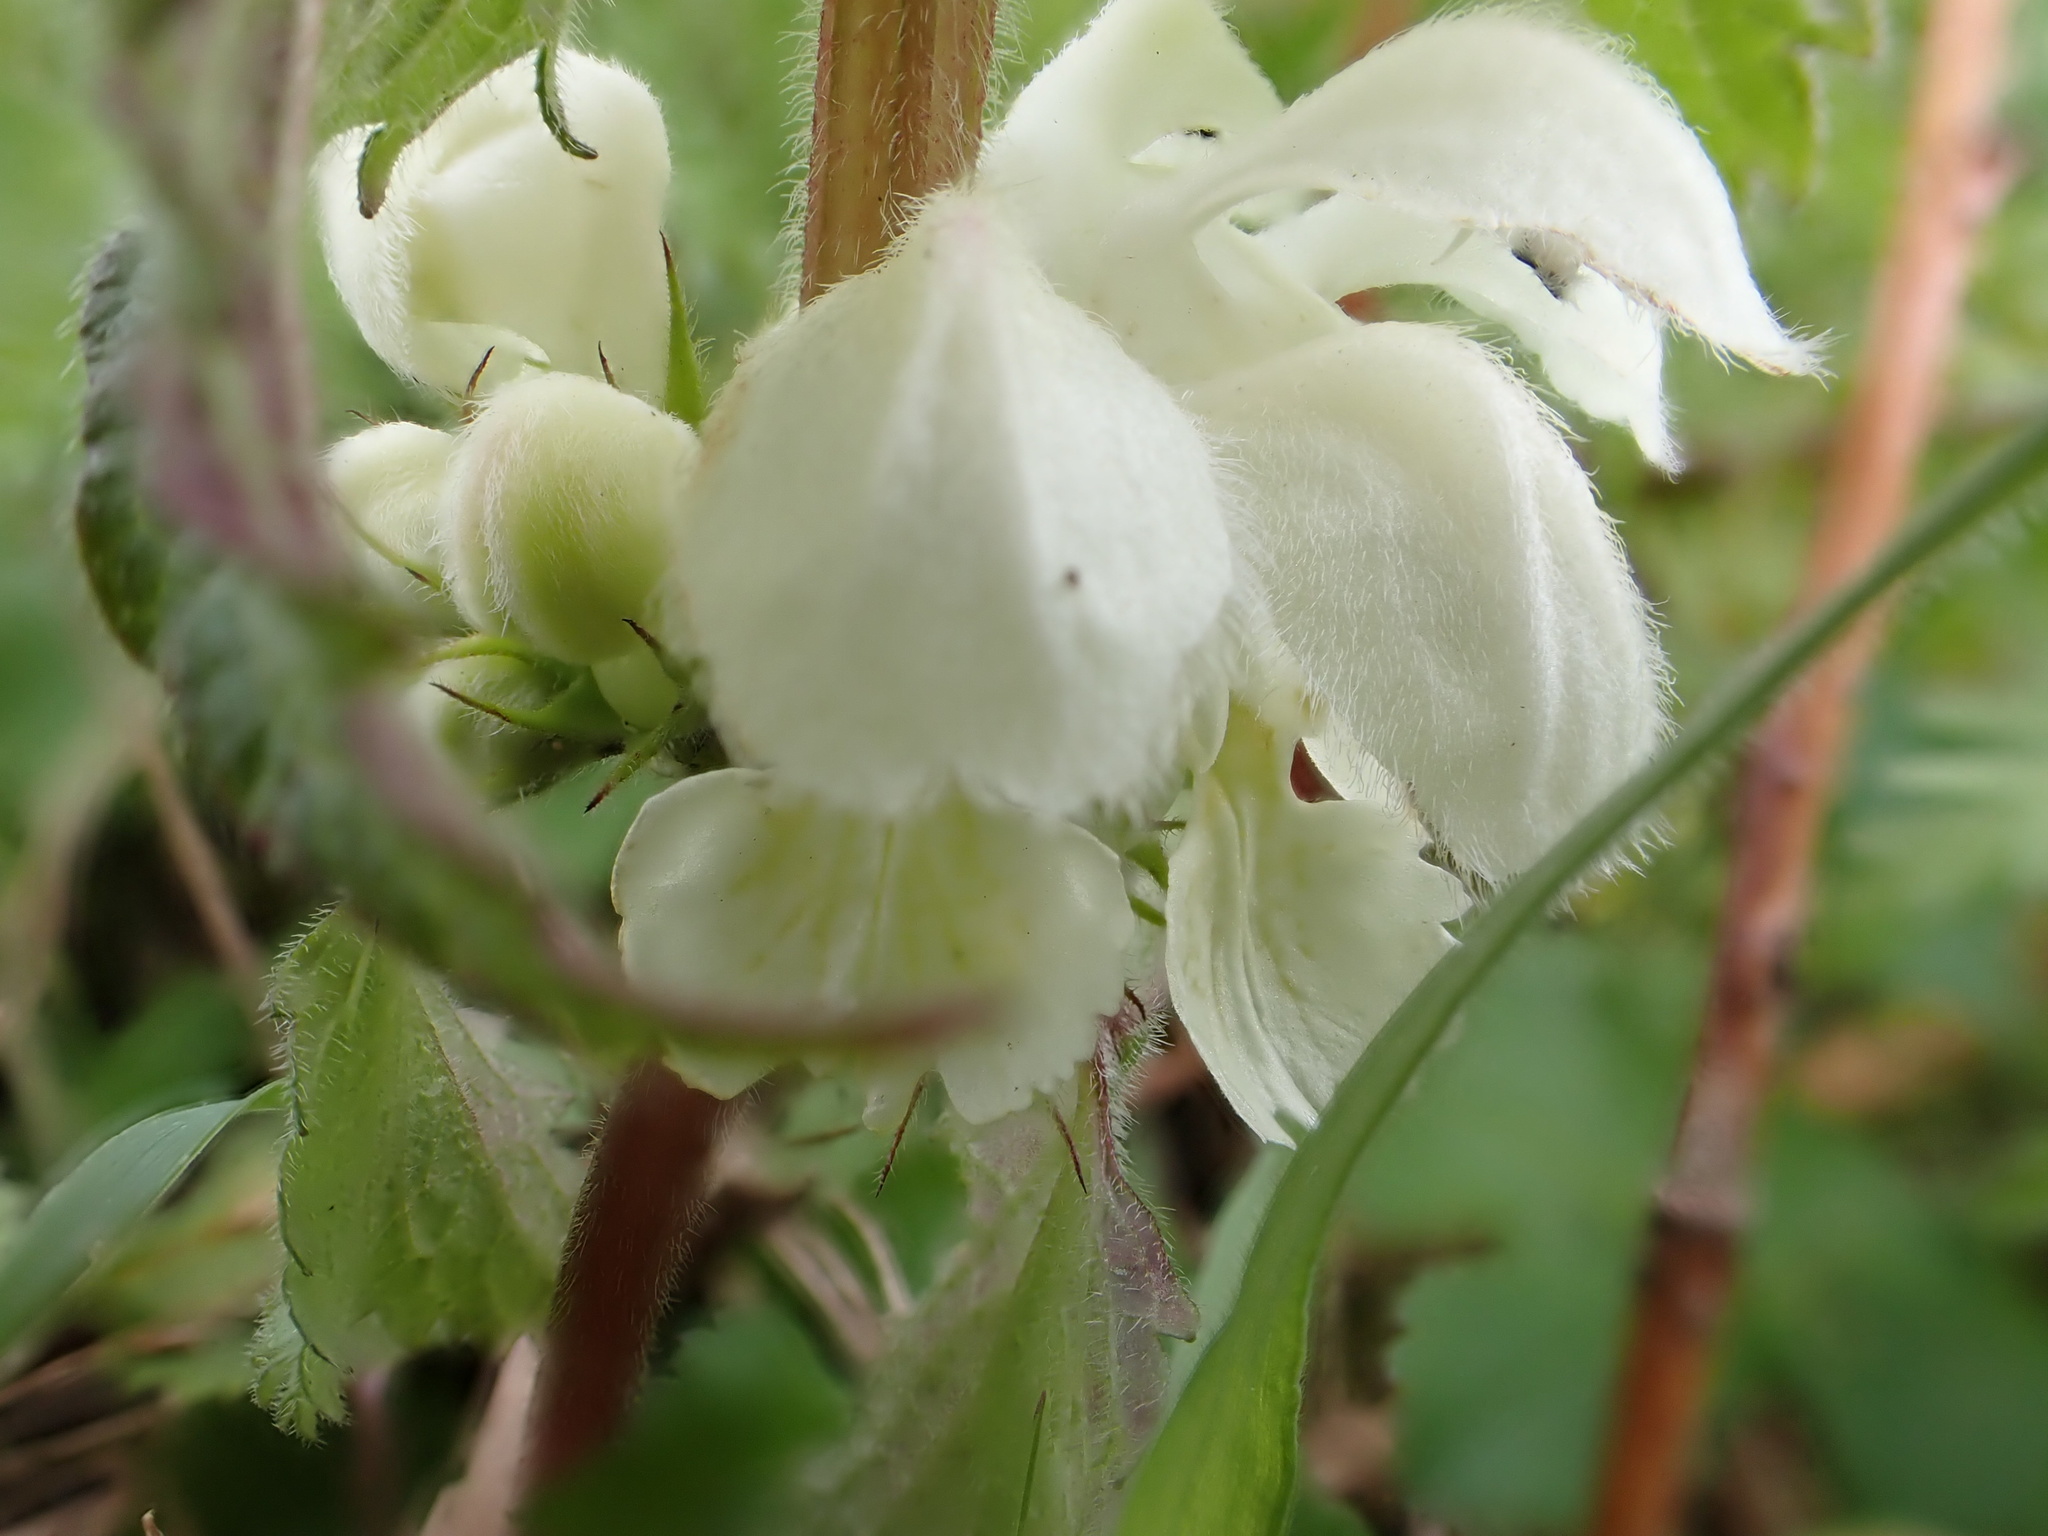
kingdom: Plantae
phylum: Tracheophyta
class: Magnoliopsida
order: Lamiales
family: Lamiaceae
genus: Lamium
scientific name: Lamium album
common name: White dead-nettle
